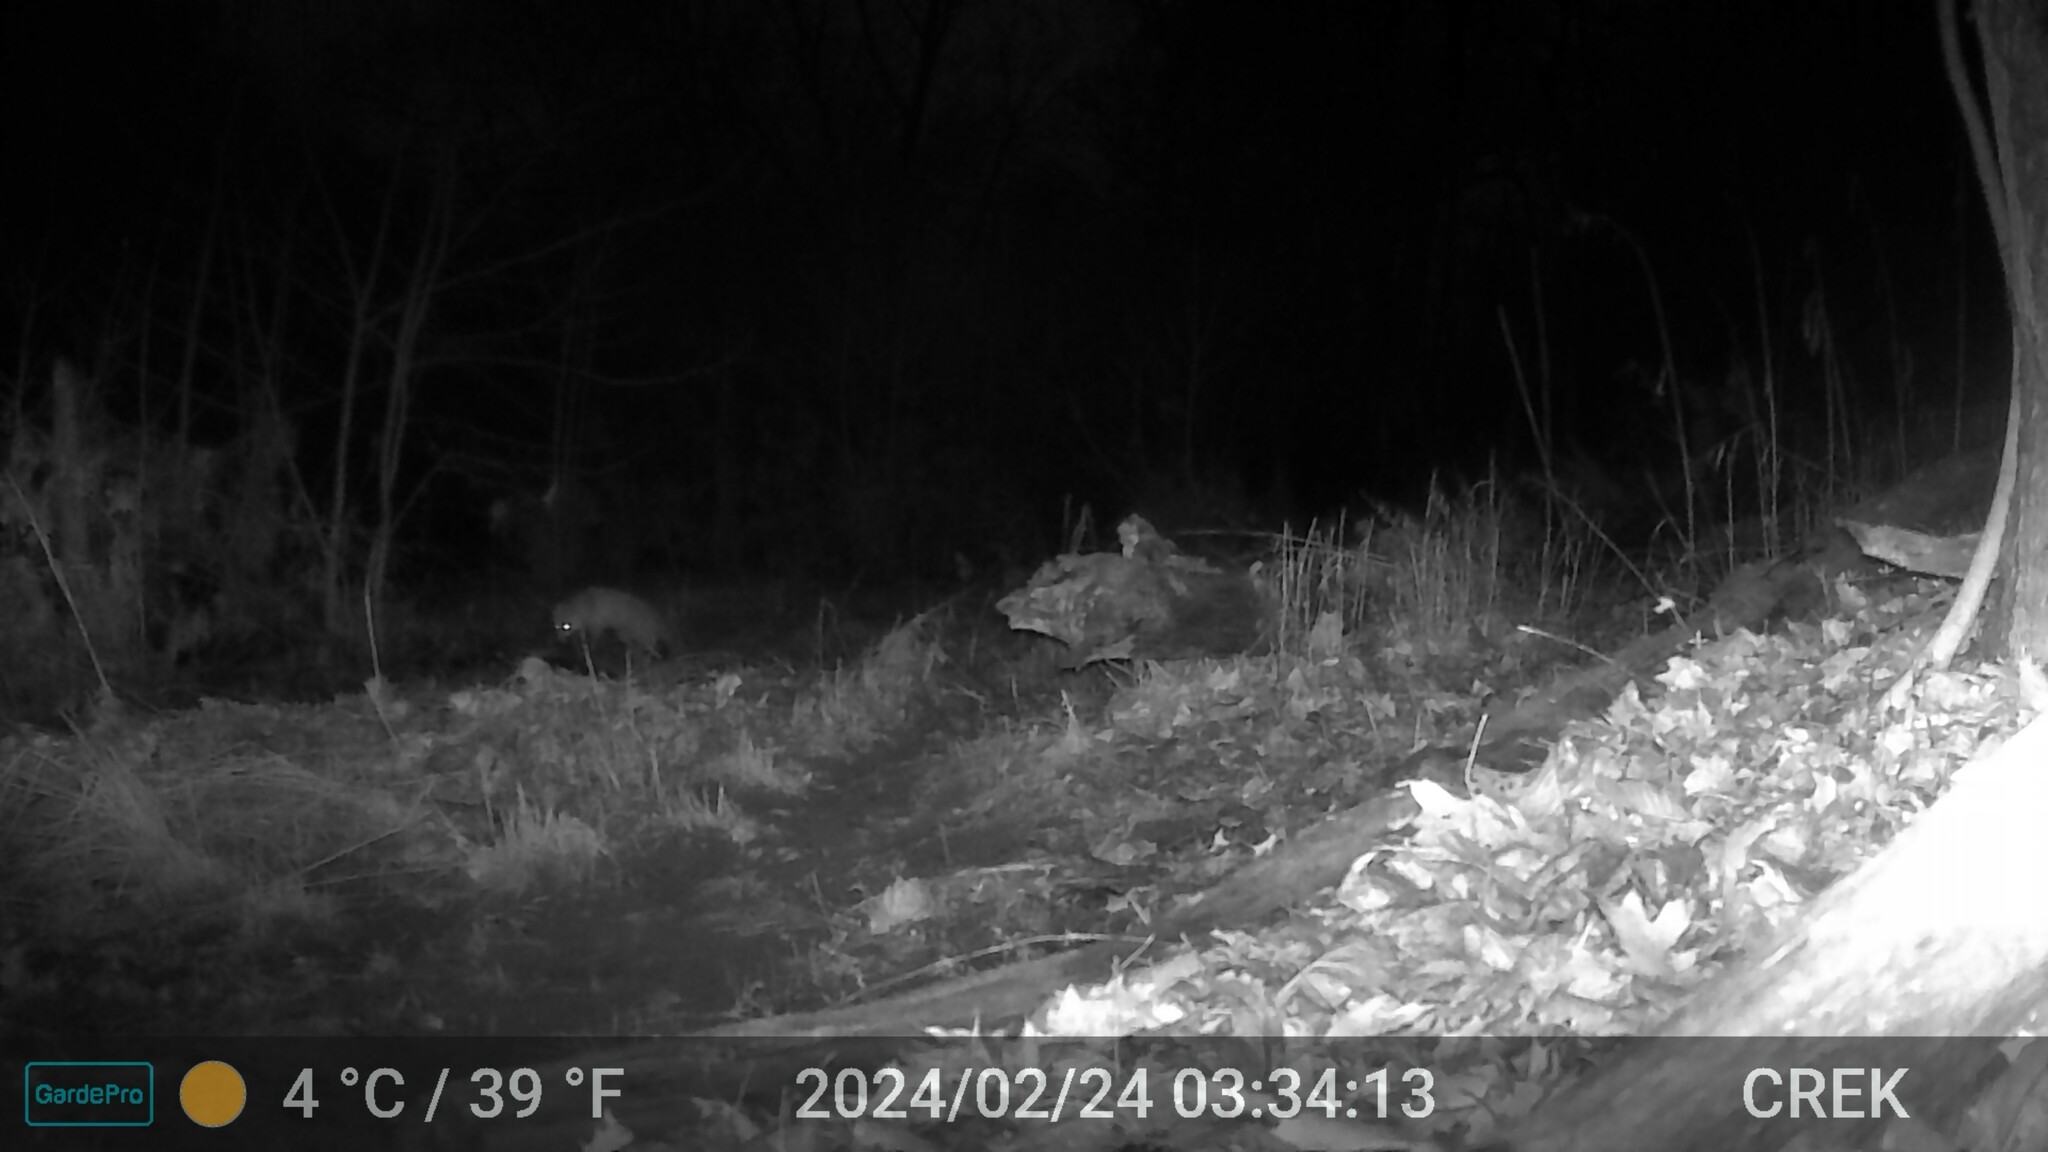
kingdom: Animalia
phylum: Chordata
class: Mammalia
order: Carnivora
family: Canidae
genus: Vulpes
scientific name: Vulpes vulpes
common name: Red fox
